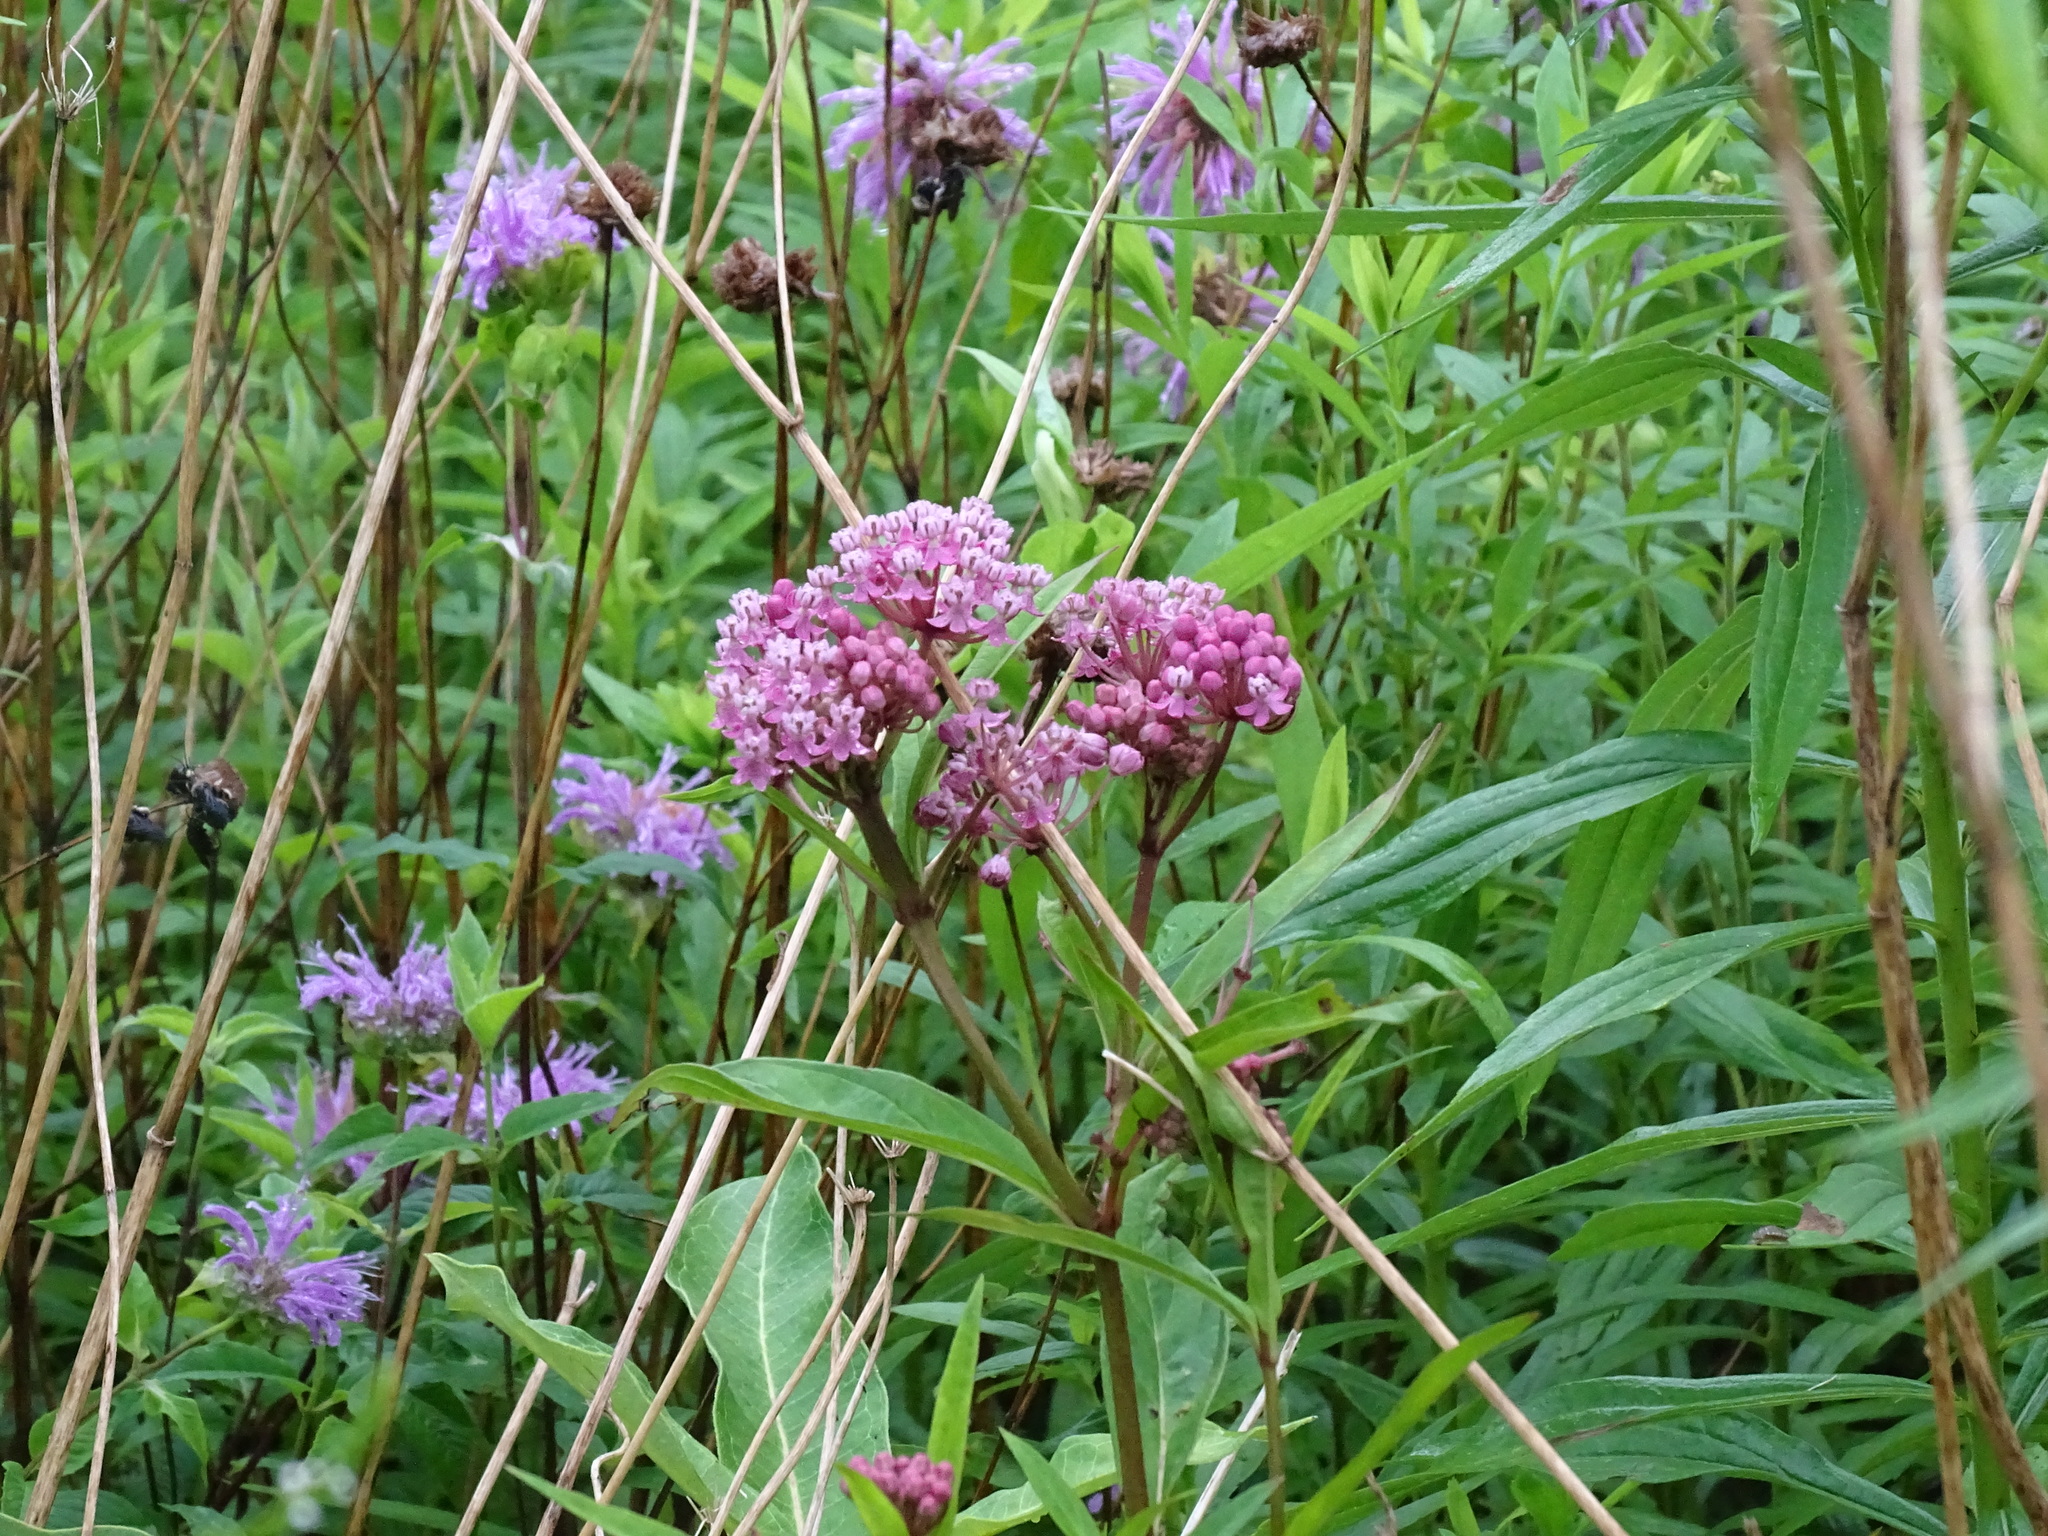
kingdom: Plantae
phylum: Tracheophyta
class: Magnoliopsida
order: Gentianales
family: Apocynaceae
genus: Asclepias
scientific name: Asclepias incarnata
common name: Swamp milkweed
